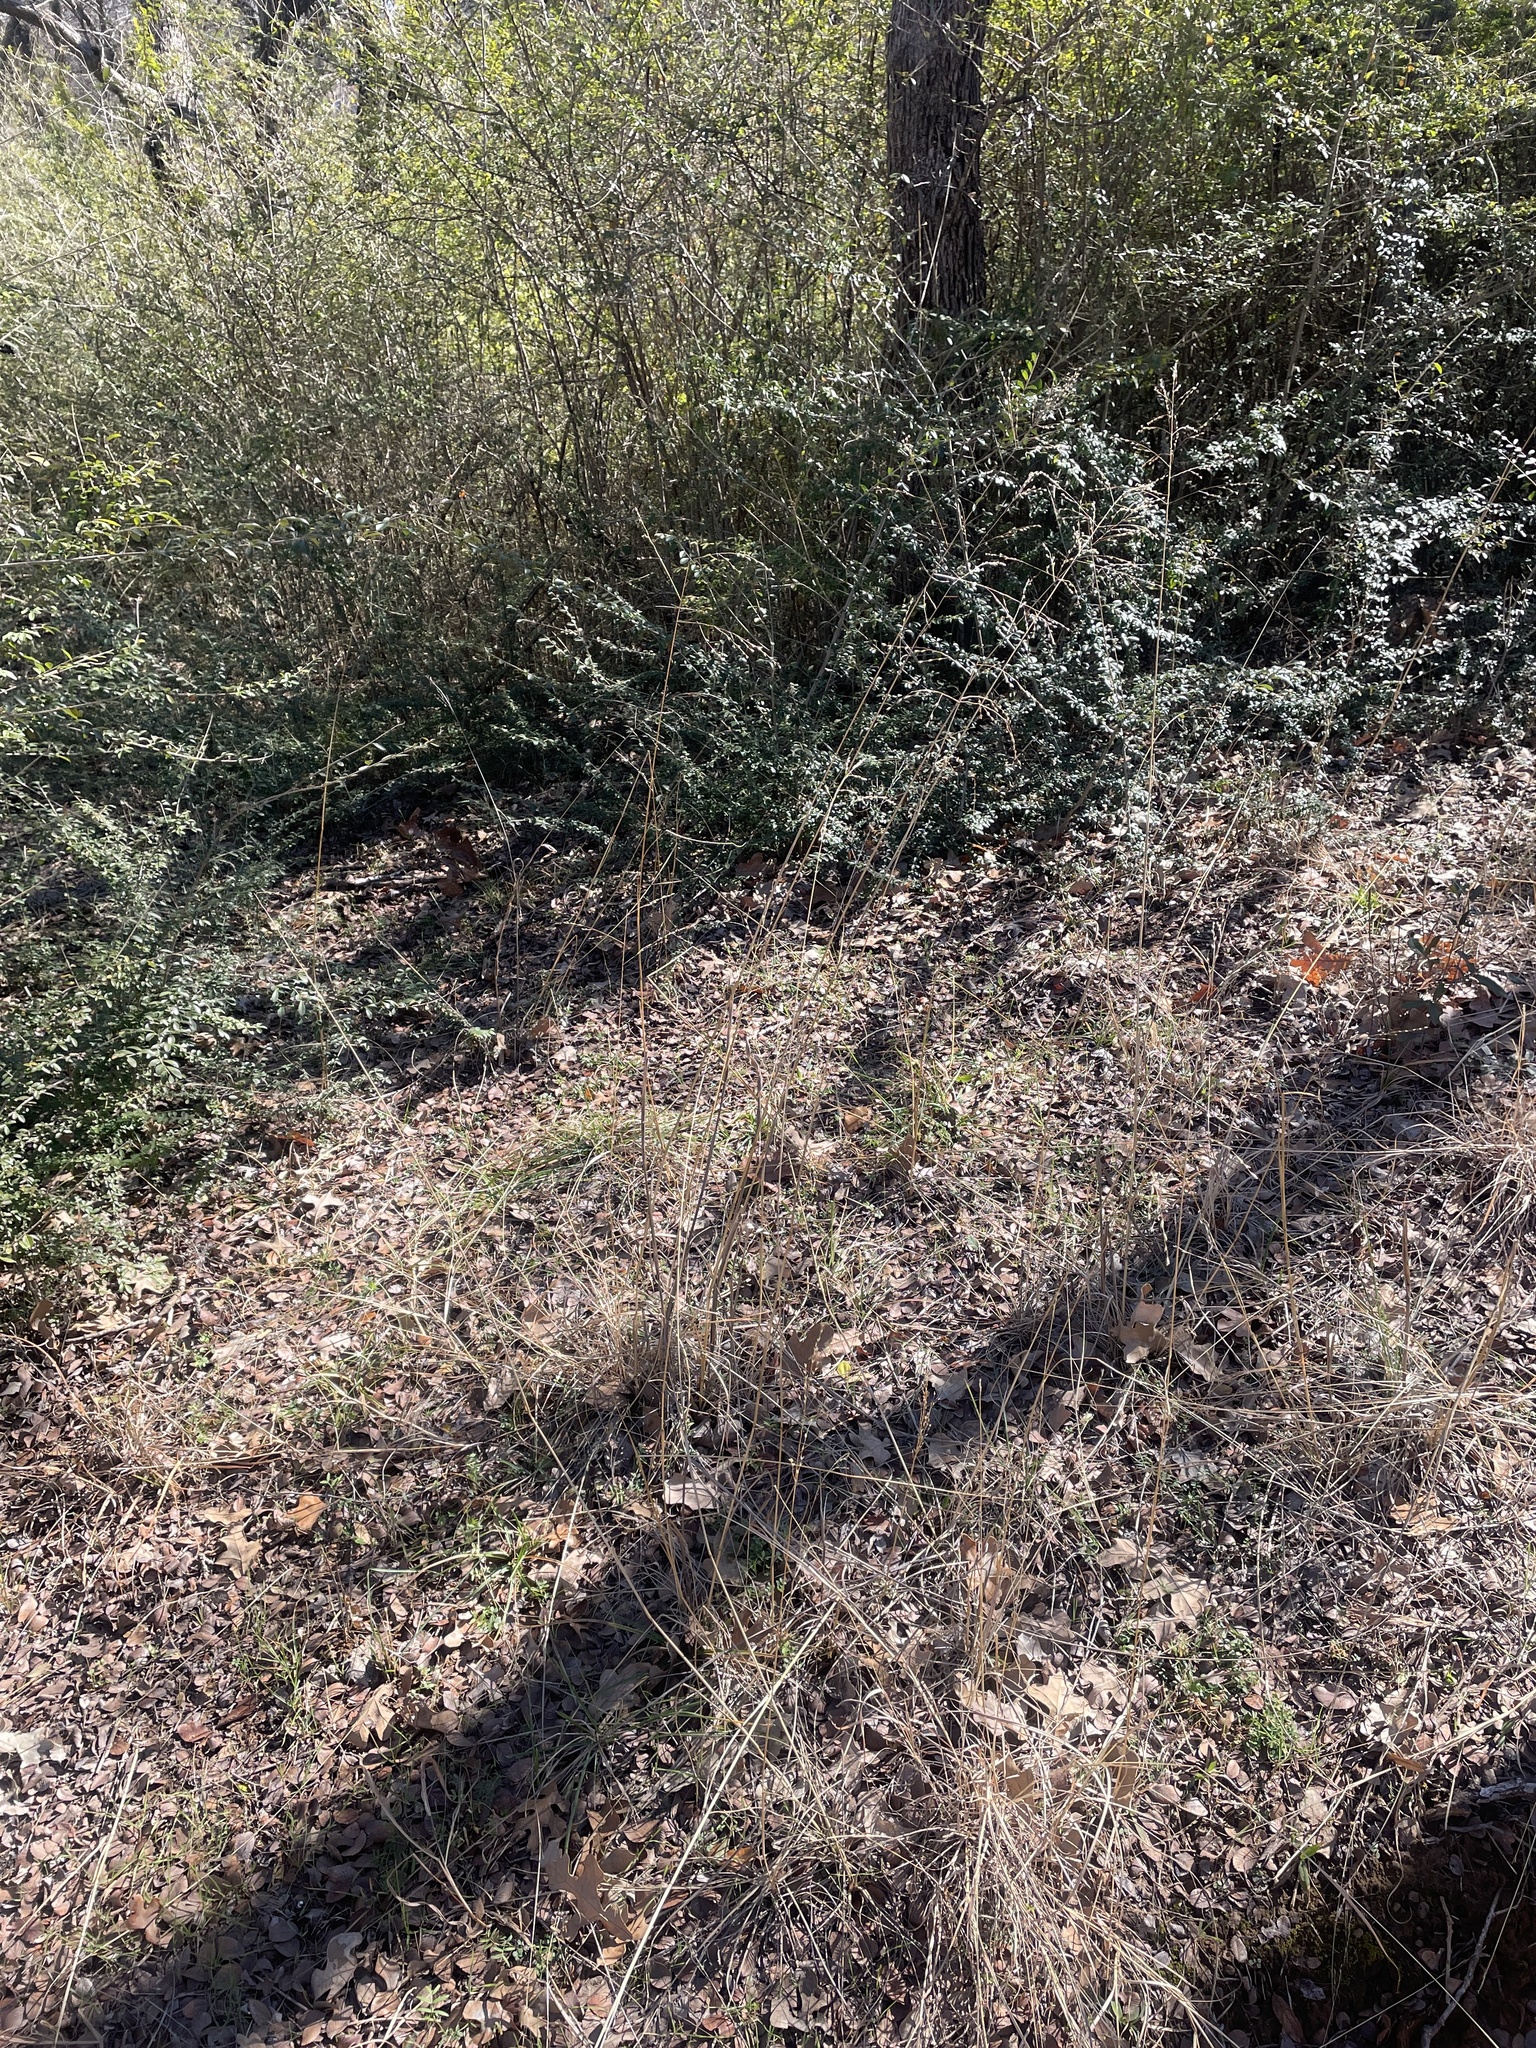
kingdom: Plantae
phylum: Tracheophyta
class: Liliopsida
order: Poales
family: Poaceae
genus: Tridens
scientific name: Tridens flavus
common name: Purpletop
